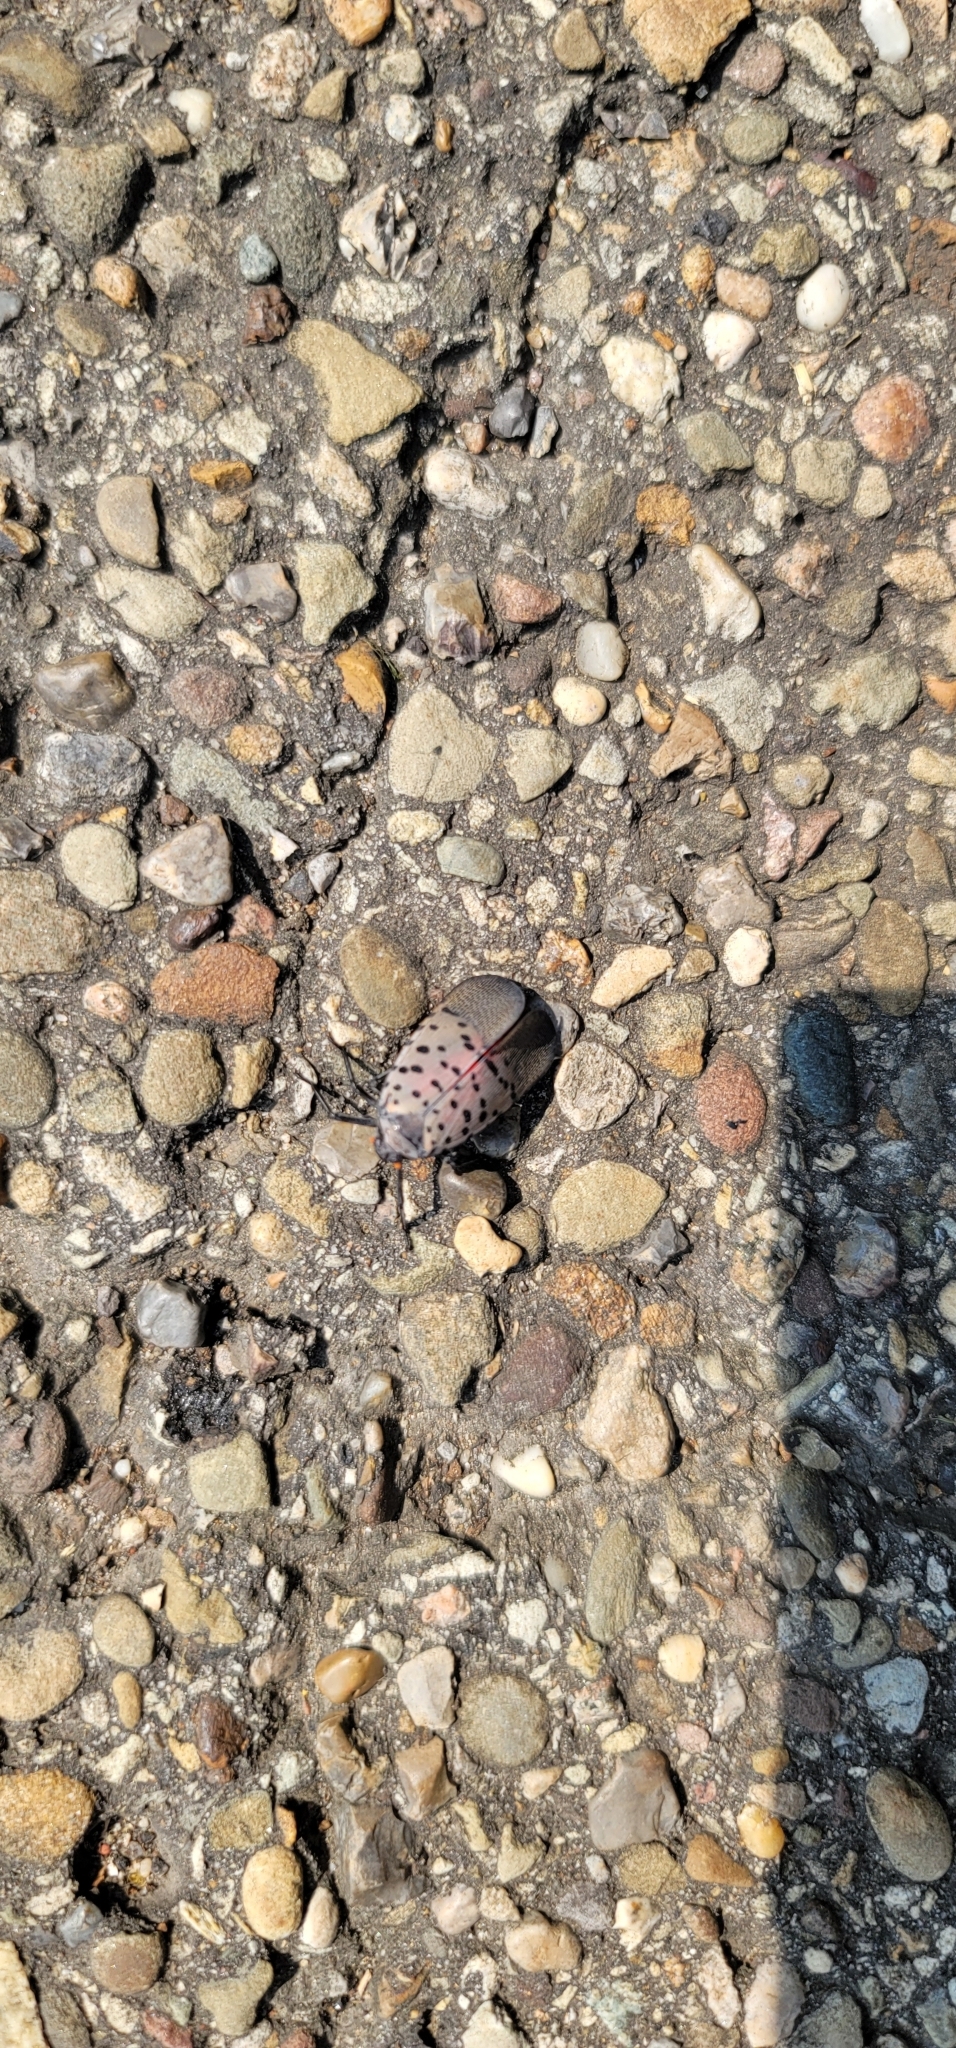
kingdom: Animalia
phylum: Arthropoda
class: Insecta
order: Hemiptera
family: Fulgoridae
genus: Lycorma
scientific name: Lycorma delicatula
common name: Spotted lanternfly
